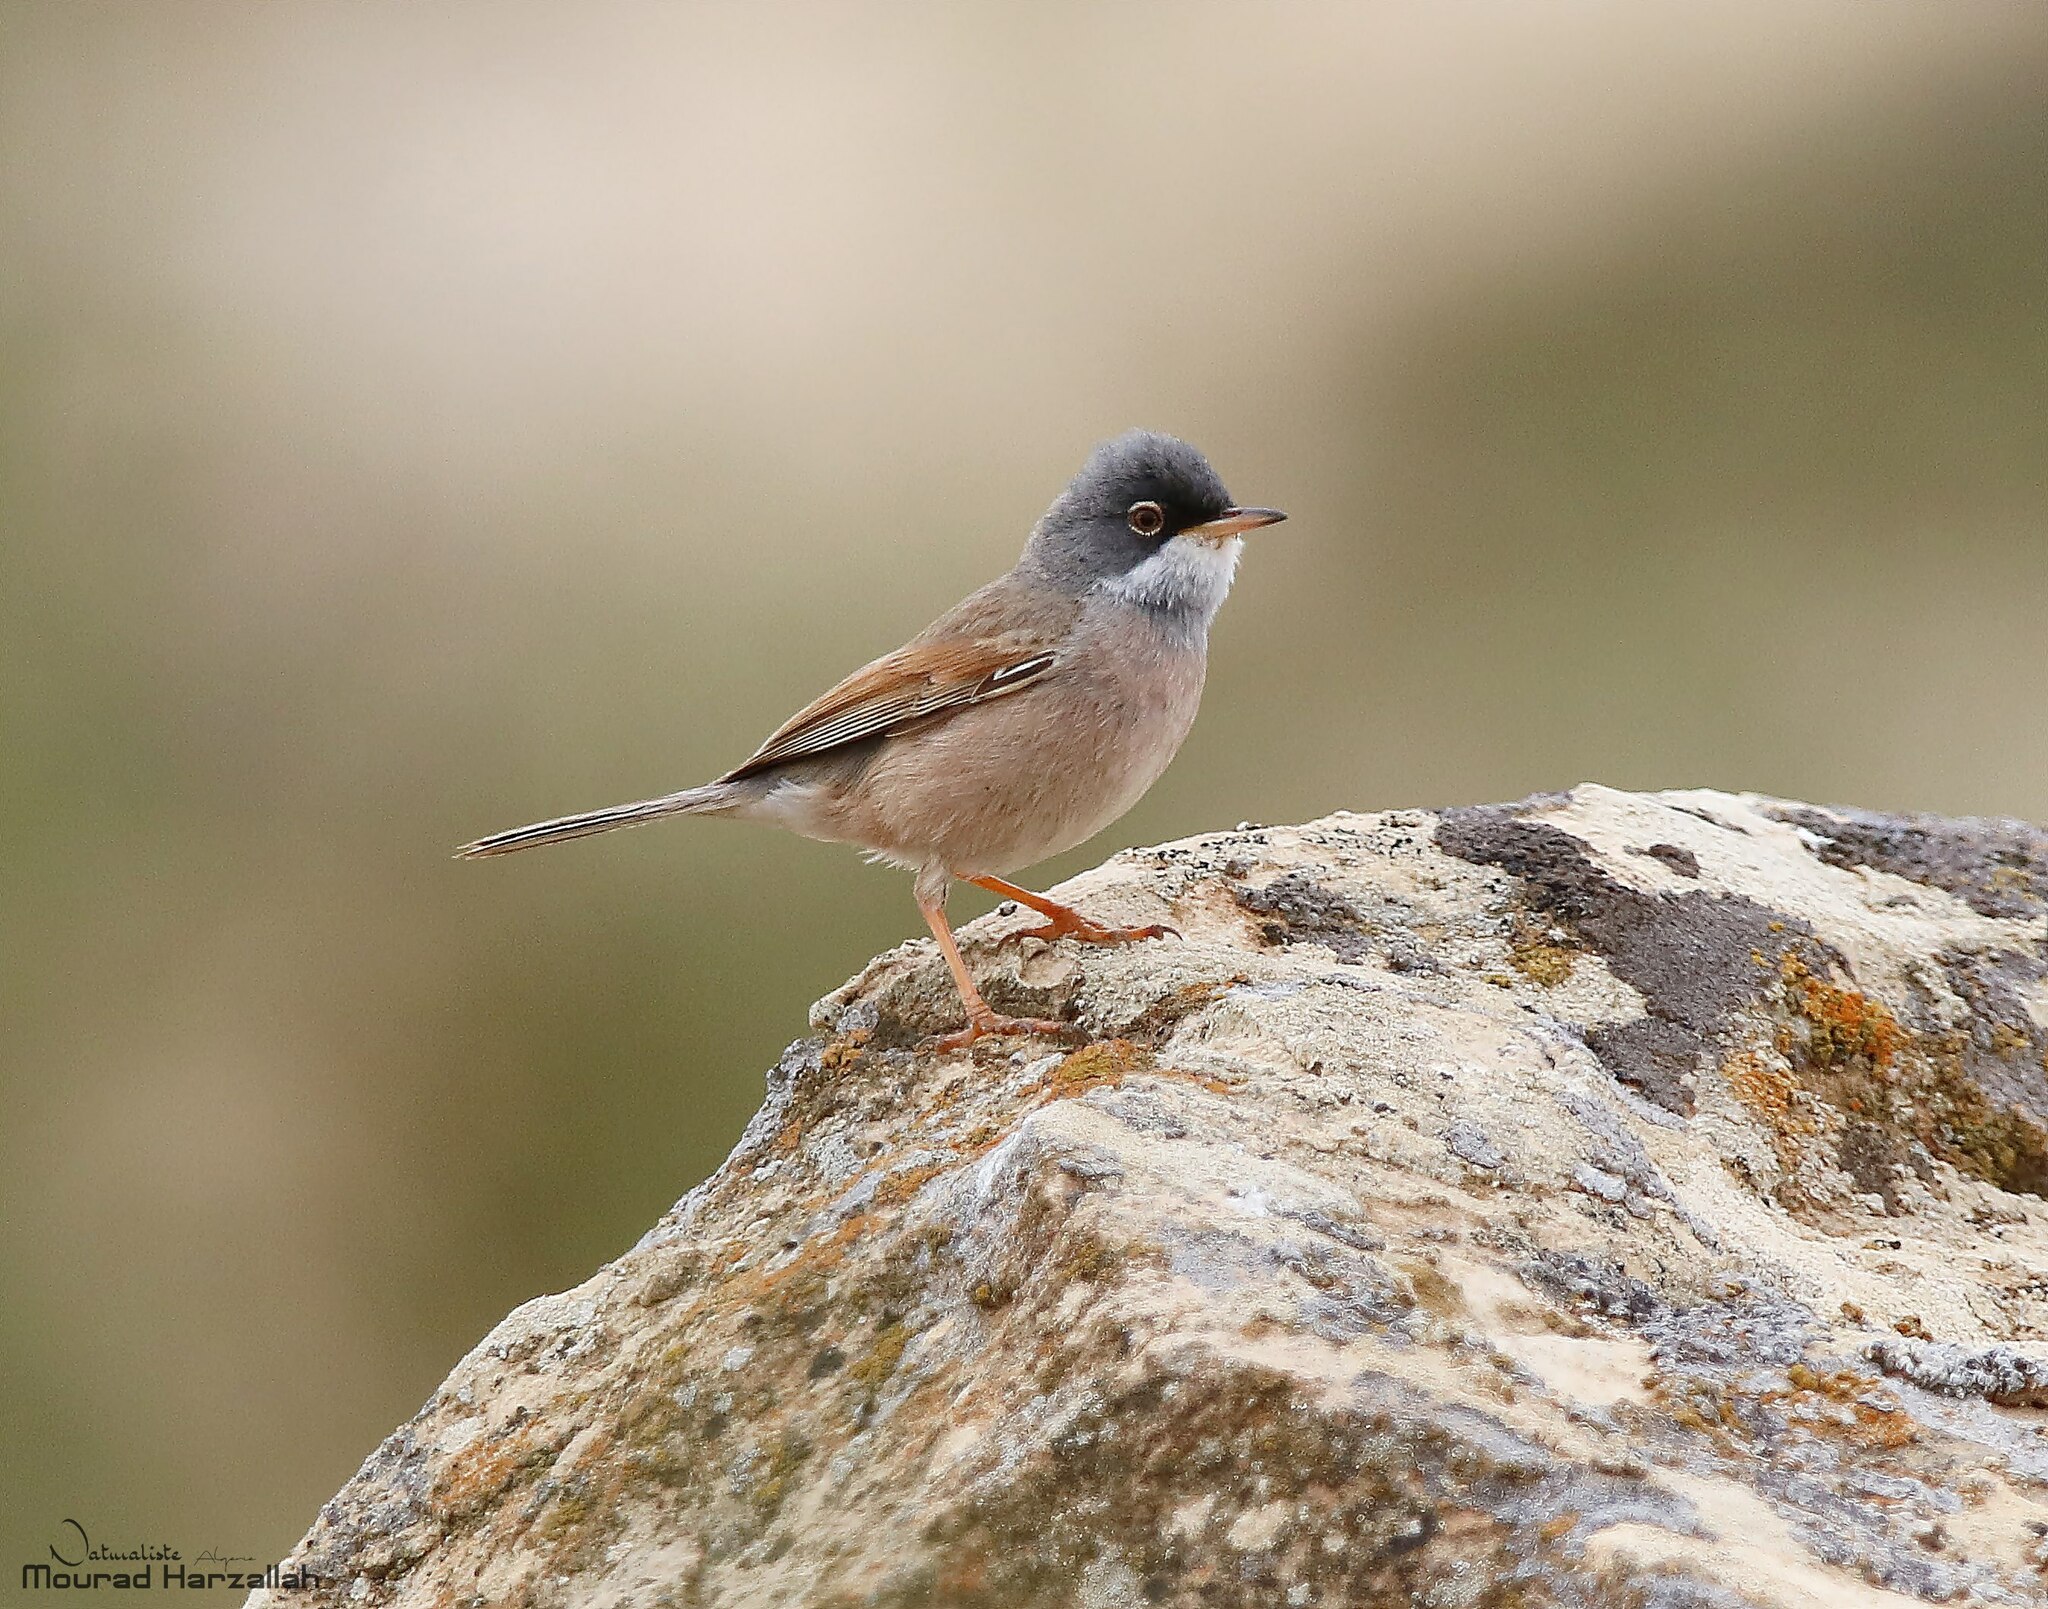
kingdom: Animalia
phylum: Chordata
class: Aves
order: Passeriformes
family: Sylviidae
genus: Sylvia
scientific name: Sylvia conspicillata
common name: Spectacled warbler
